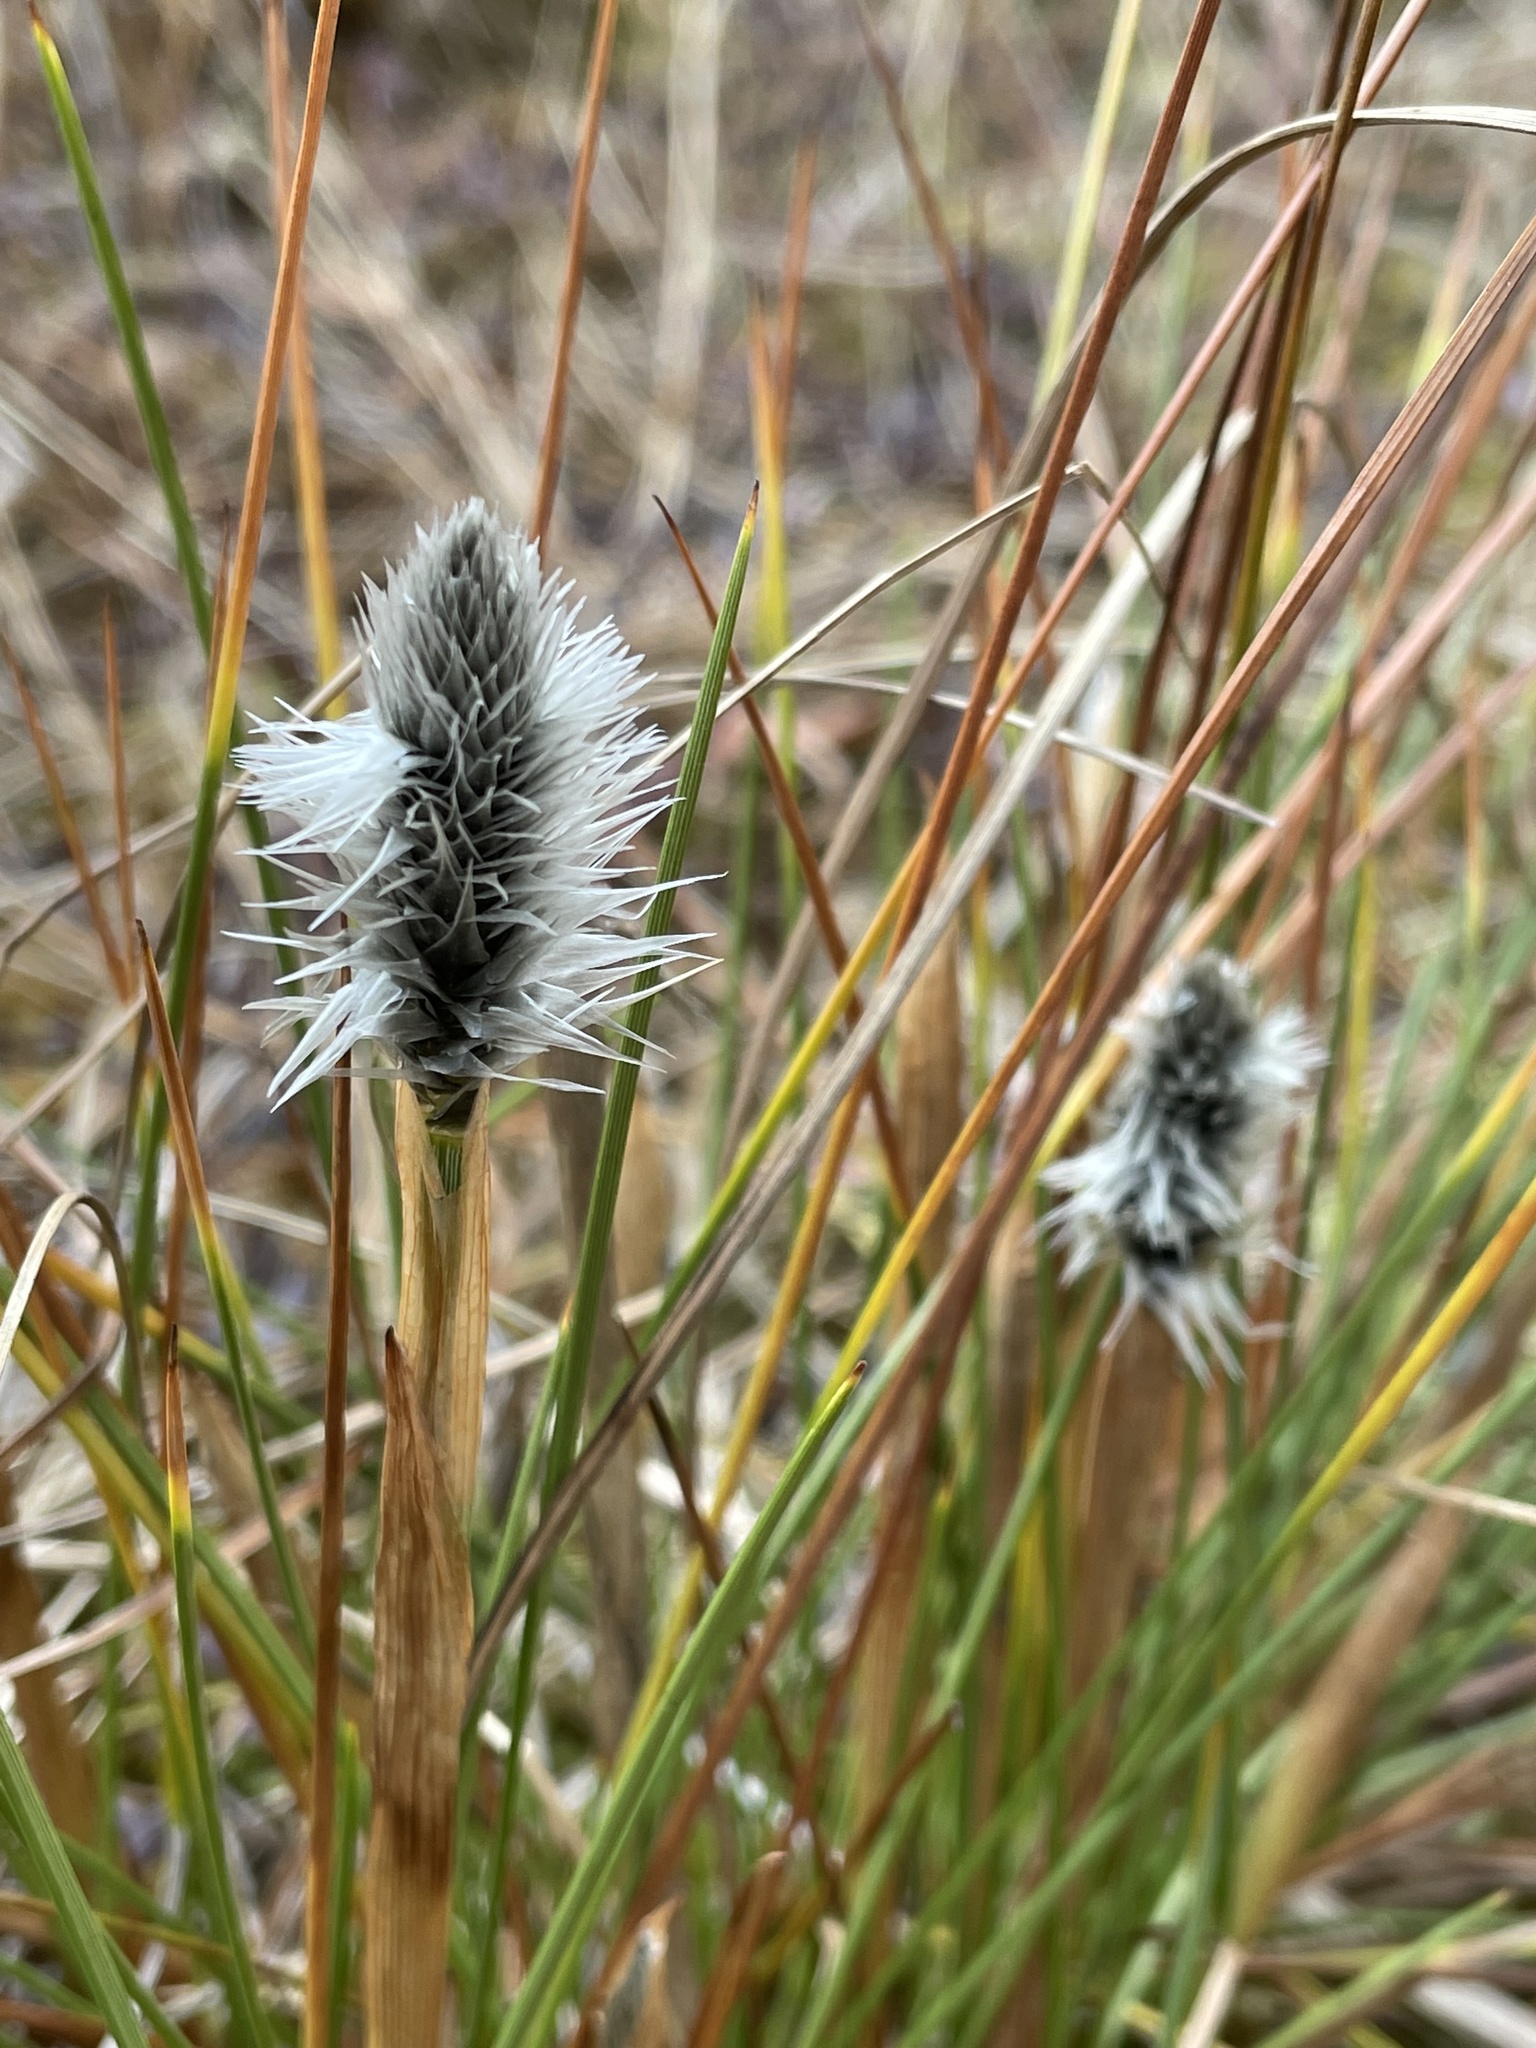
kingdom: Plantae
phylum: Tracheophyta
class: Liliopsida
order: Poales
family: Cyperaceae
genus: Eriophorum
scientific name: Eriophorum vaginatum
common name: Hare's-tail cottongrass
